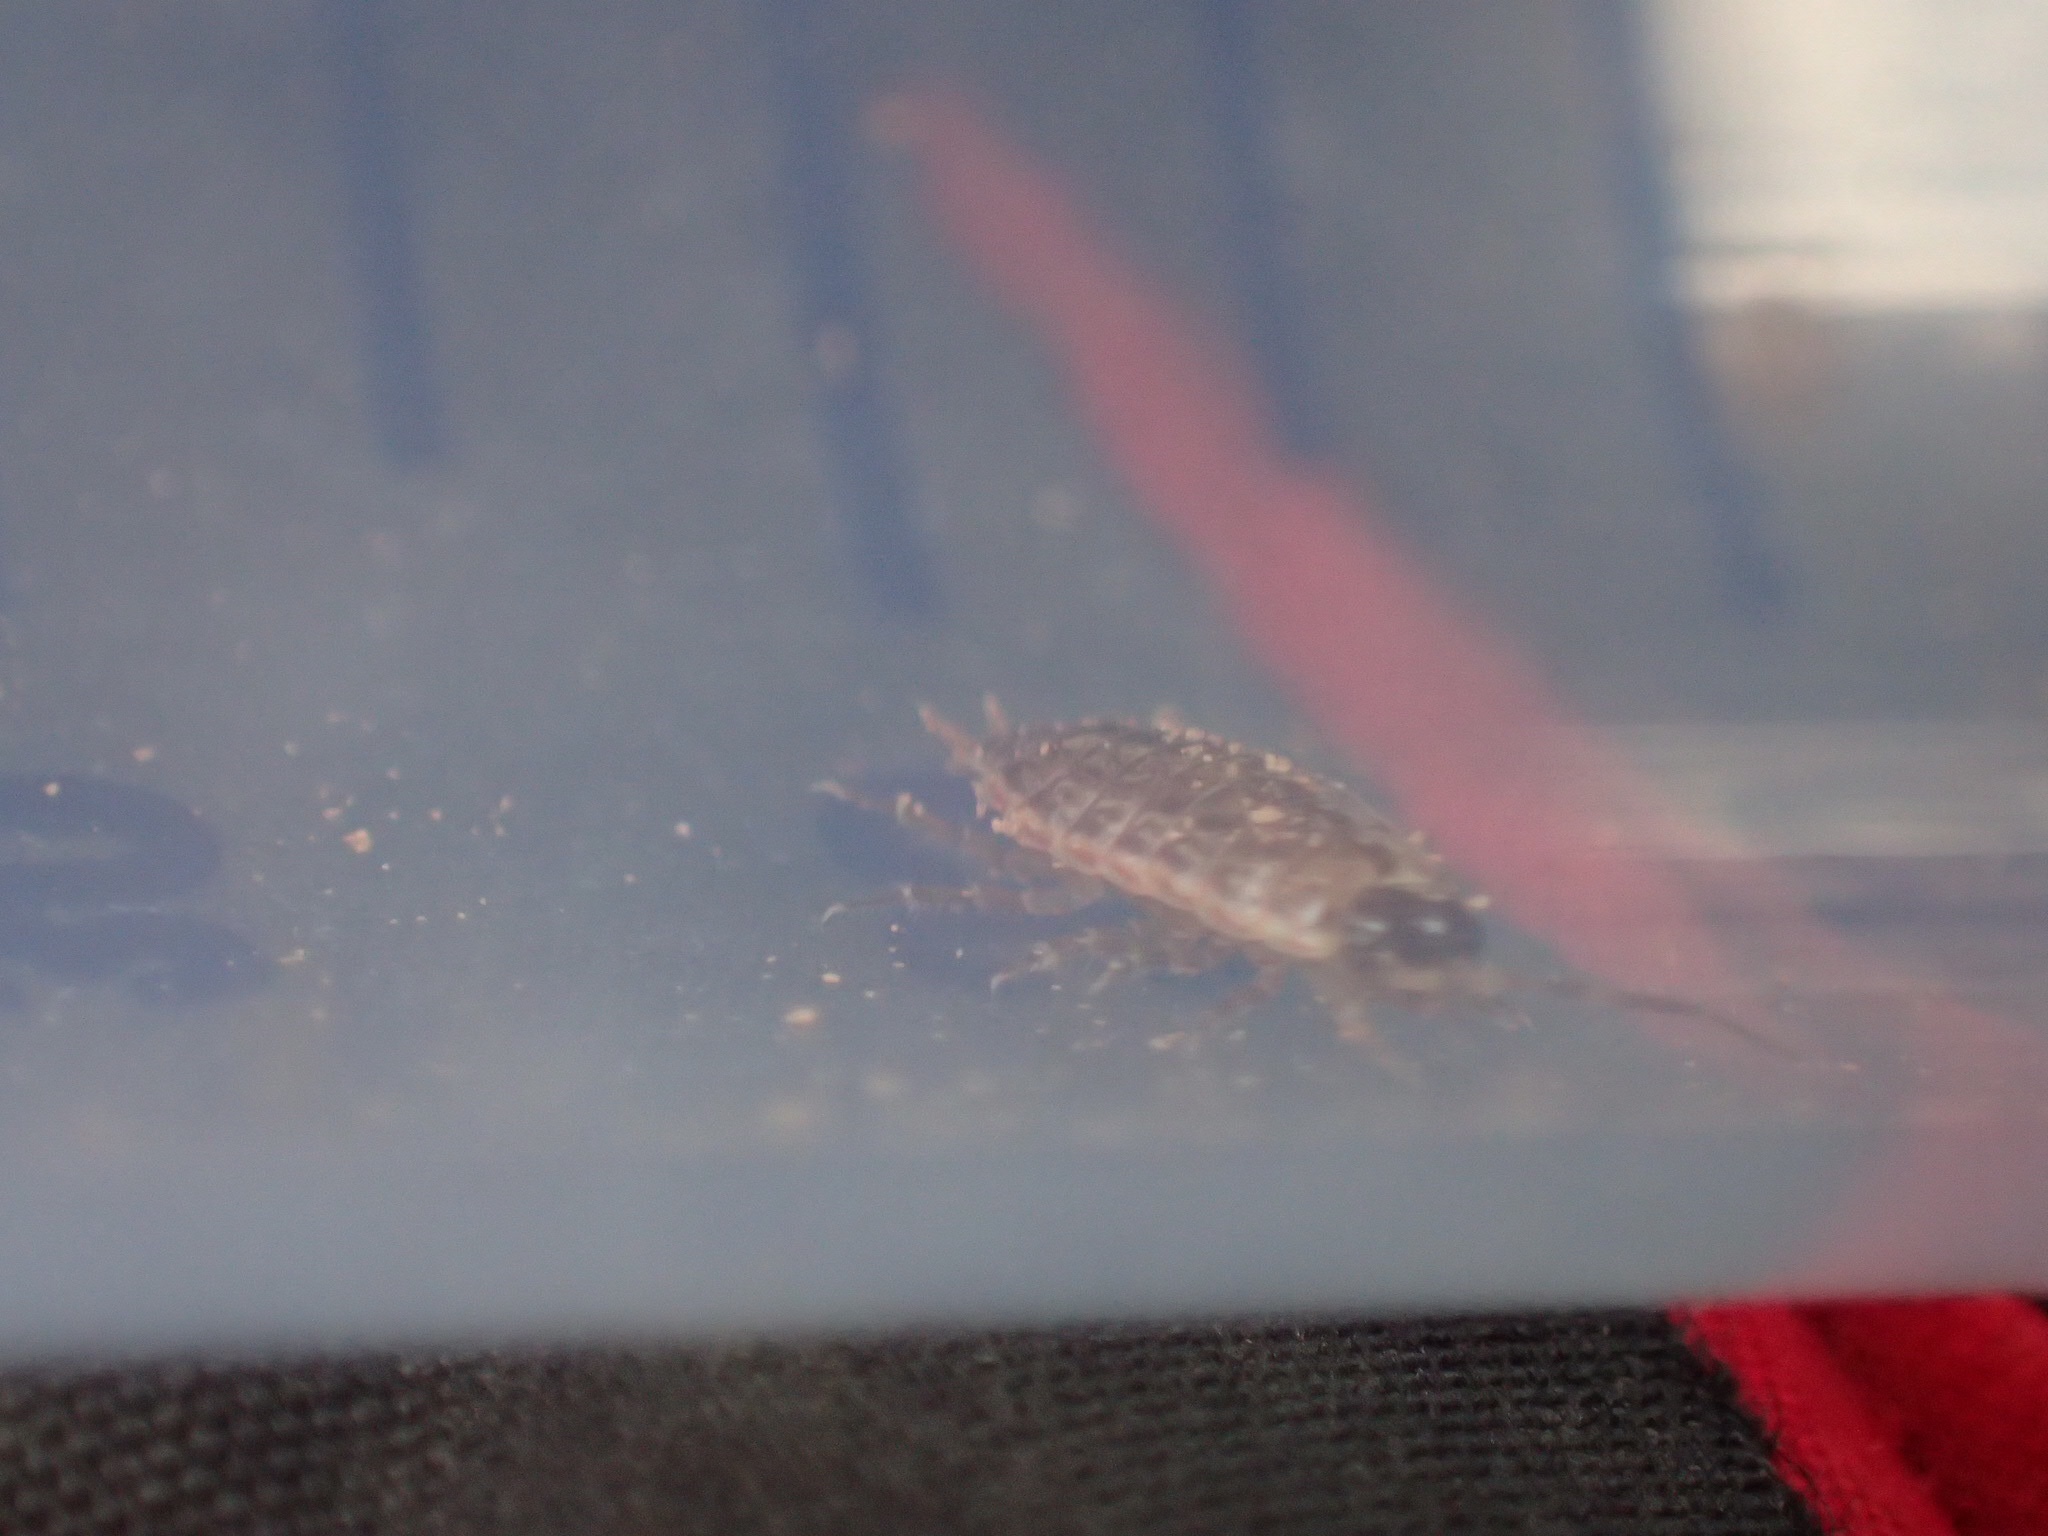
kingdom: Animalia
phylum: Arthropoda
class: Malacostraca
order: Isopoda
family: Philosciidae
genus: Philoscia
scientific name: Philoscia muscorum
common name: Common striped woodlouse
